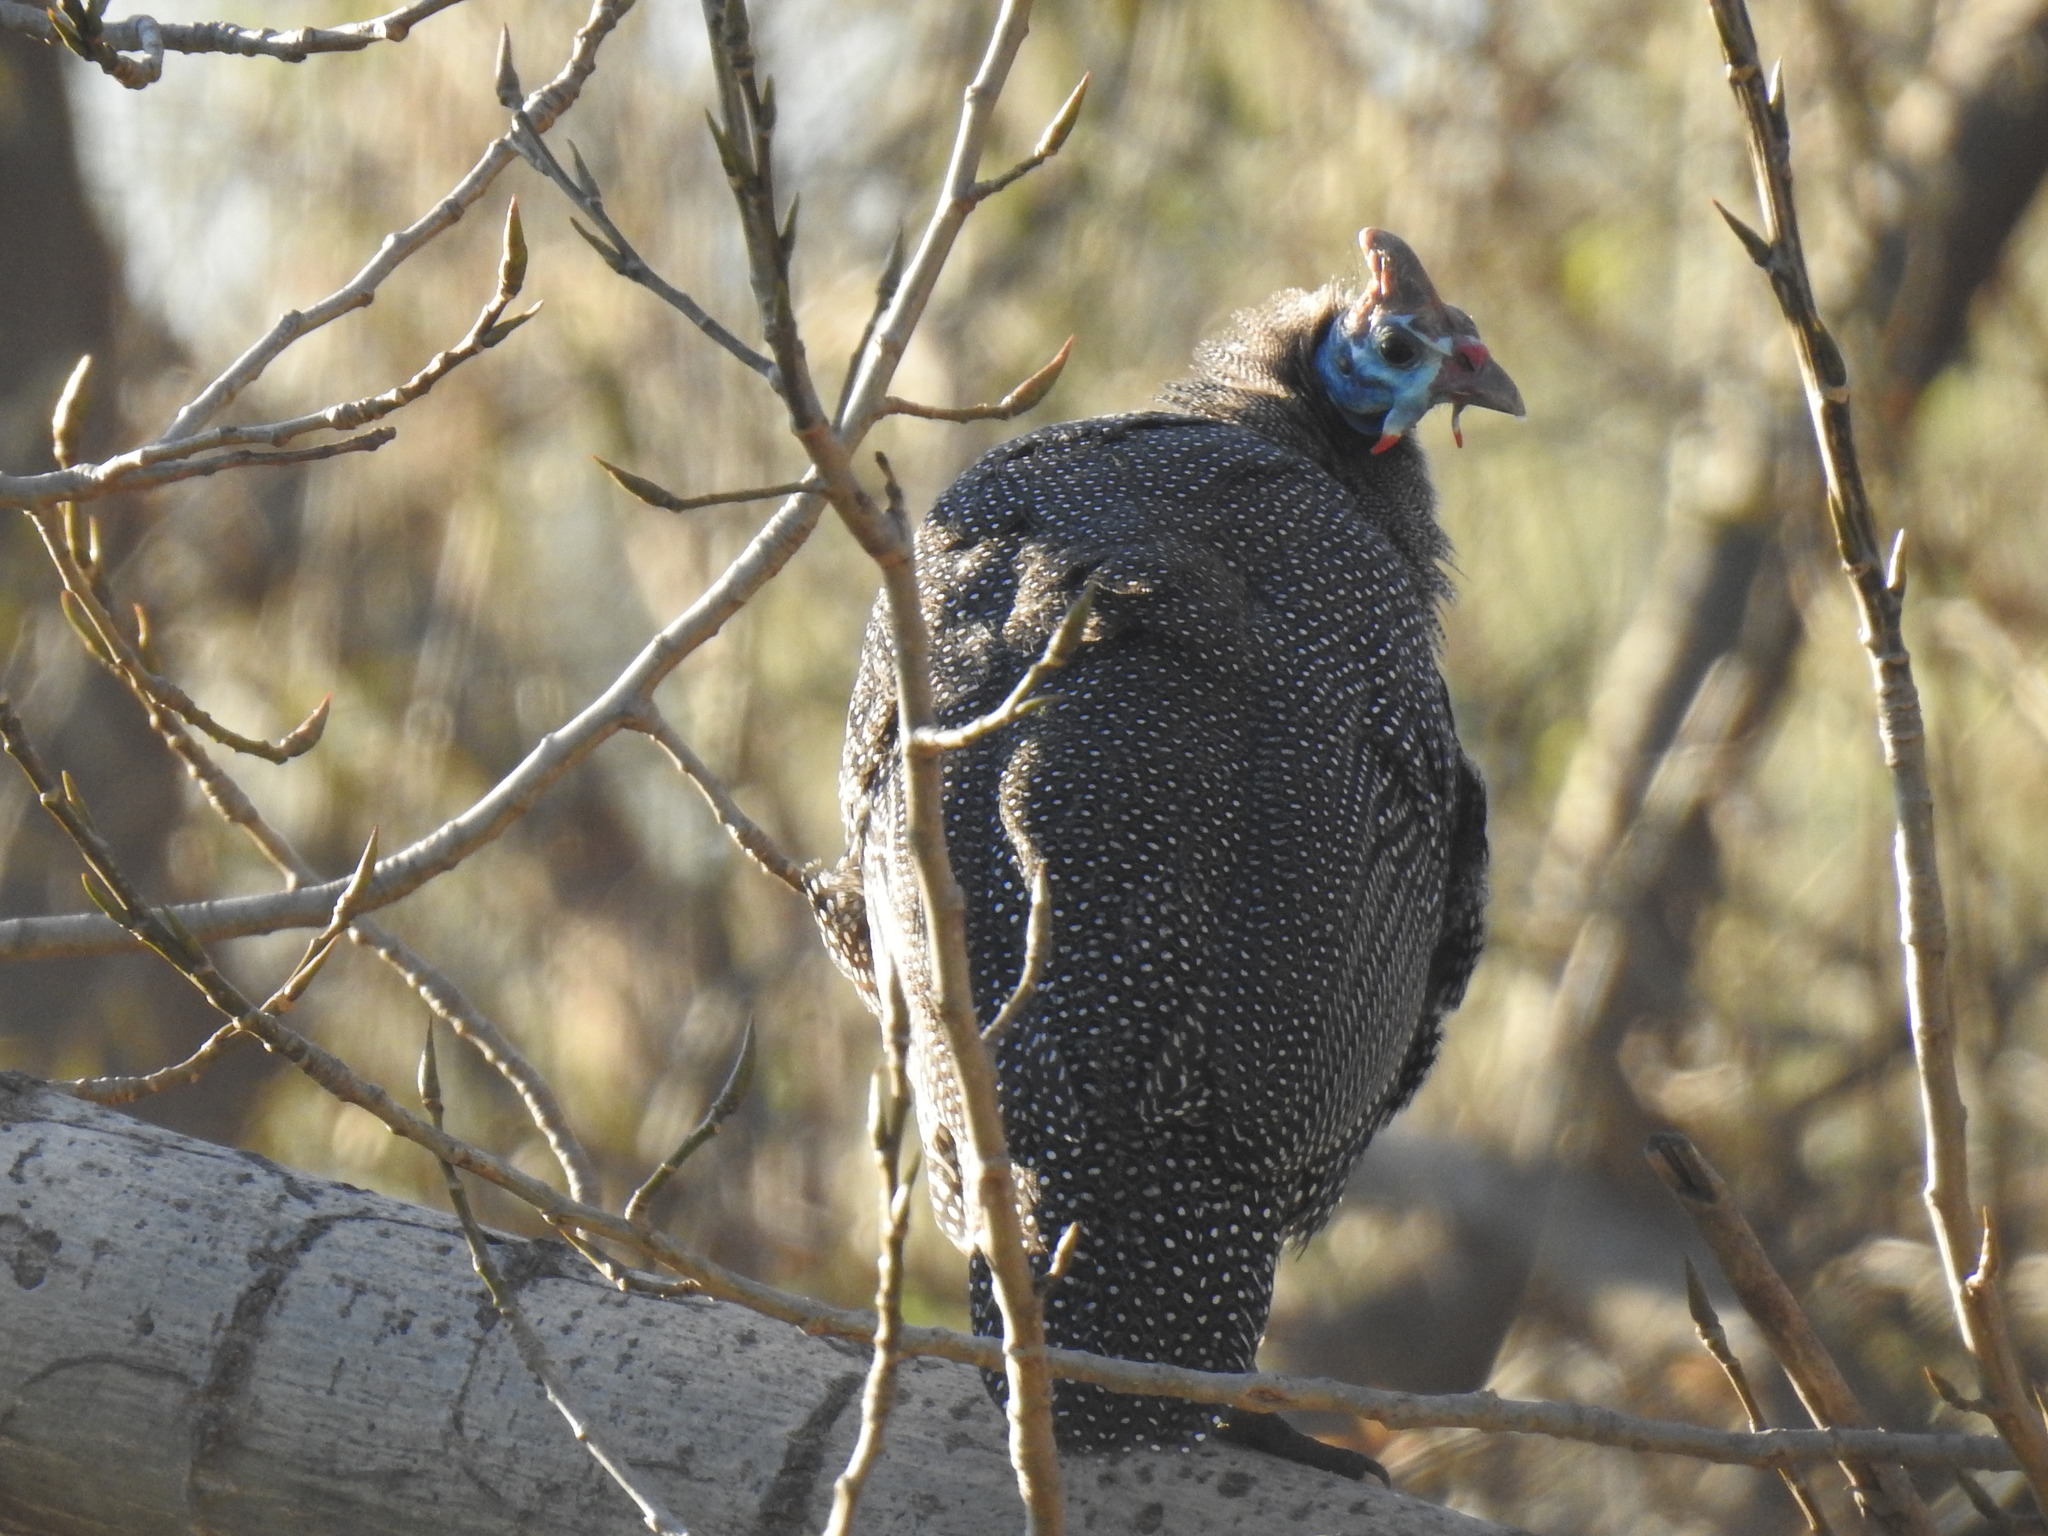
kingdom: Animalia
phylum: Chordata
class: Aves
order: Galliformes
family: Numididae
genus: Numida
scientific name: Numida meleagris
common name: Helmeted guineafowl
